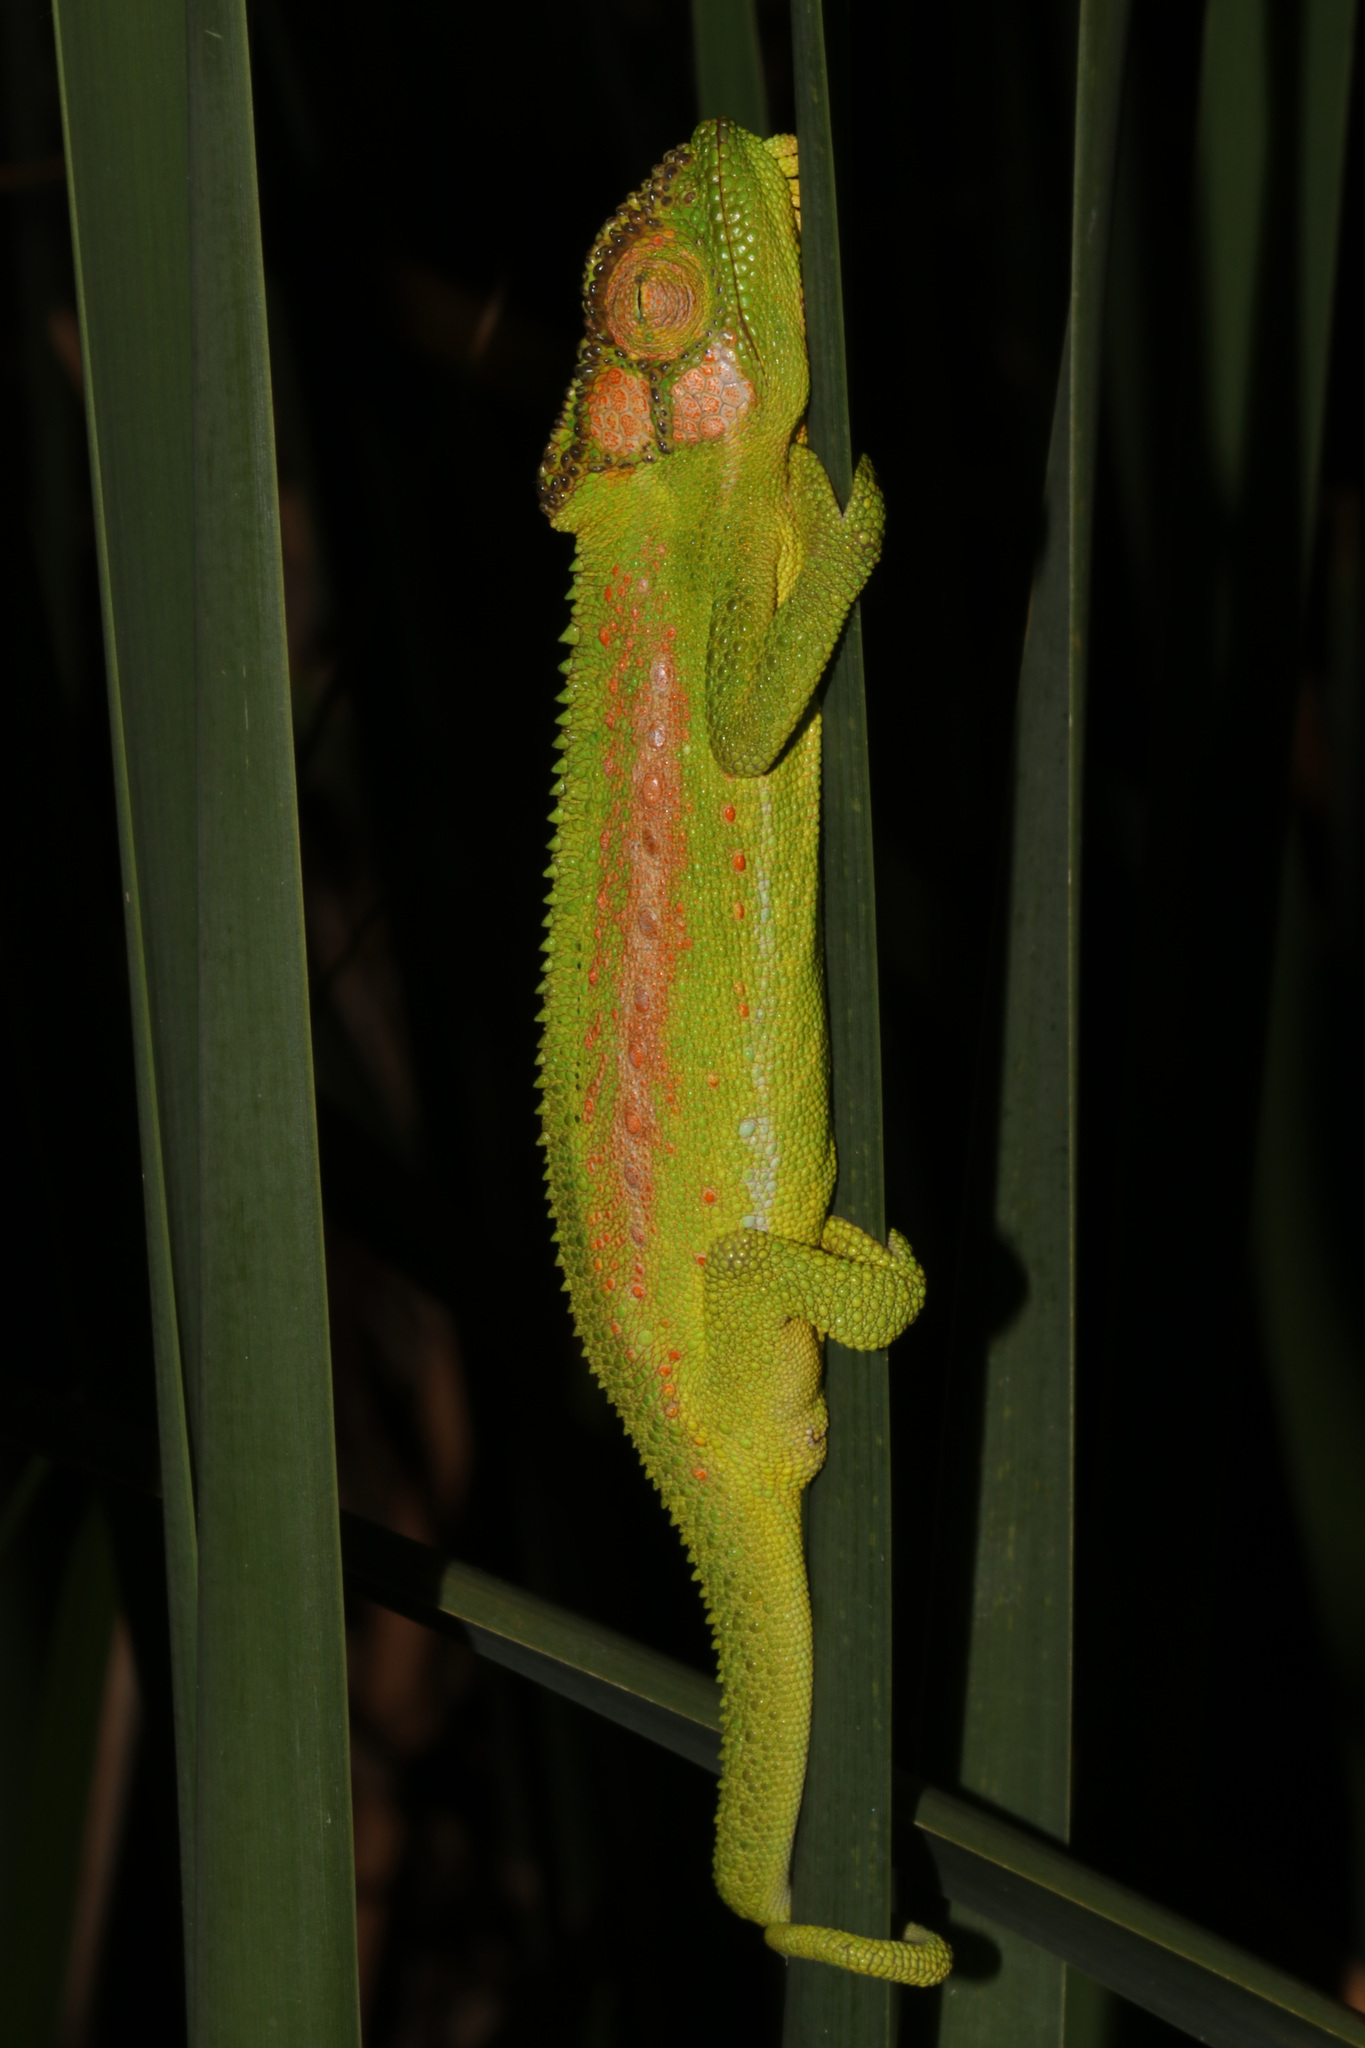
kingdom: Animalia
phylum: Chordata
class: Squamata
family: Chamaeleonidae
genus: Bradypodion
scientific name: Bradypodion pumilum
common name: Cape dwarf chameleon
